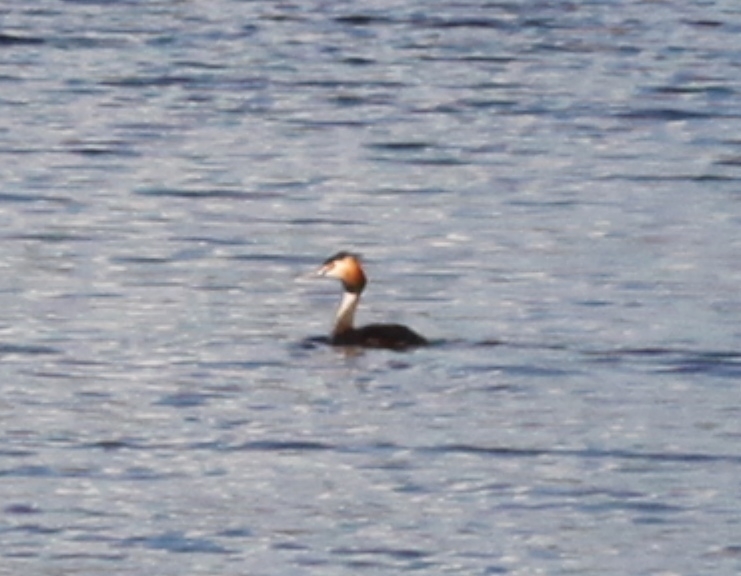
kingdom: Animalia
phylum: Chordata
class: Aves
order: Podicipediformes
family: Podicipedidae
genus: Podiceps
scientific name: Podiceps cristatus
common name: Great crested grebe
